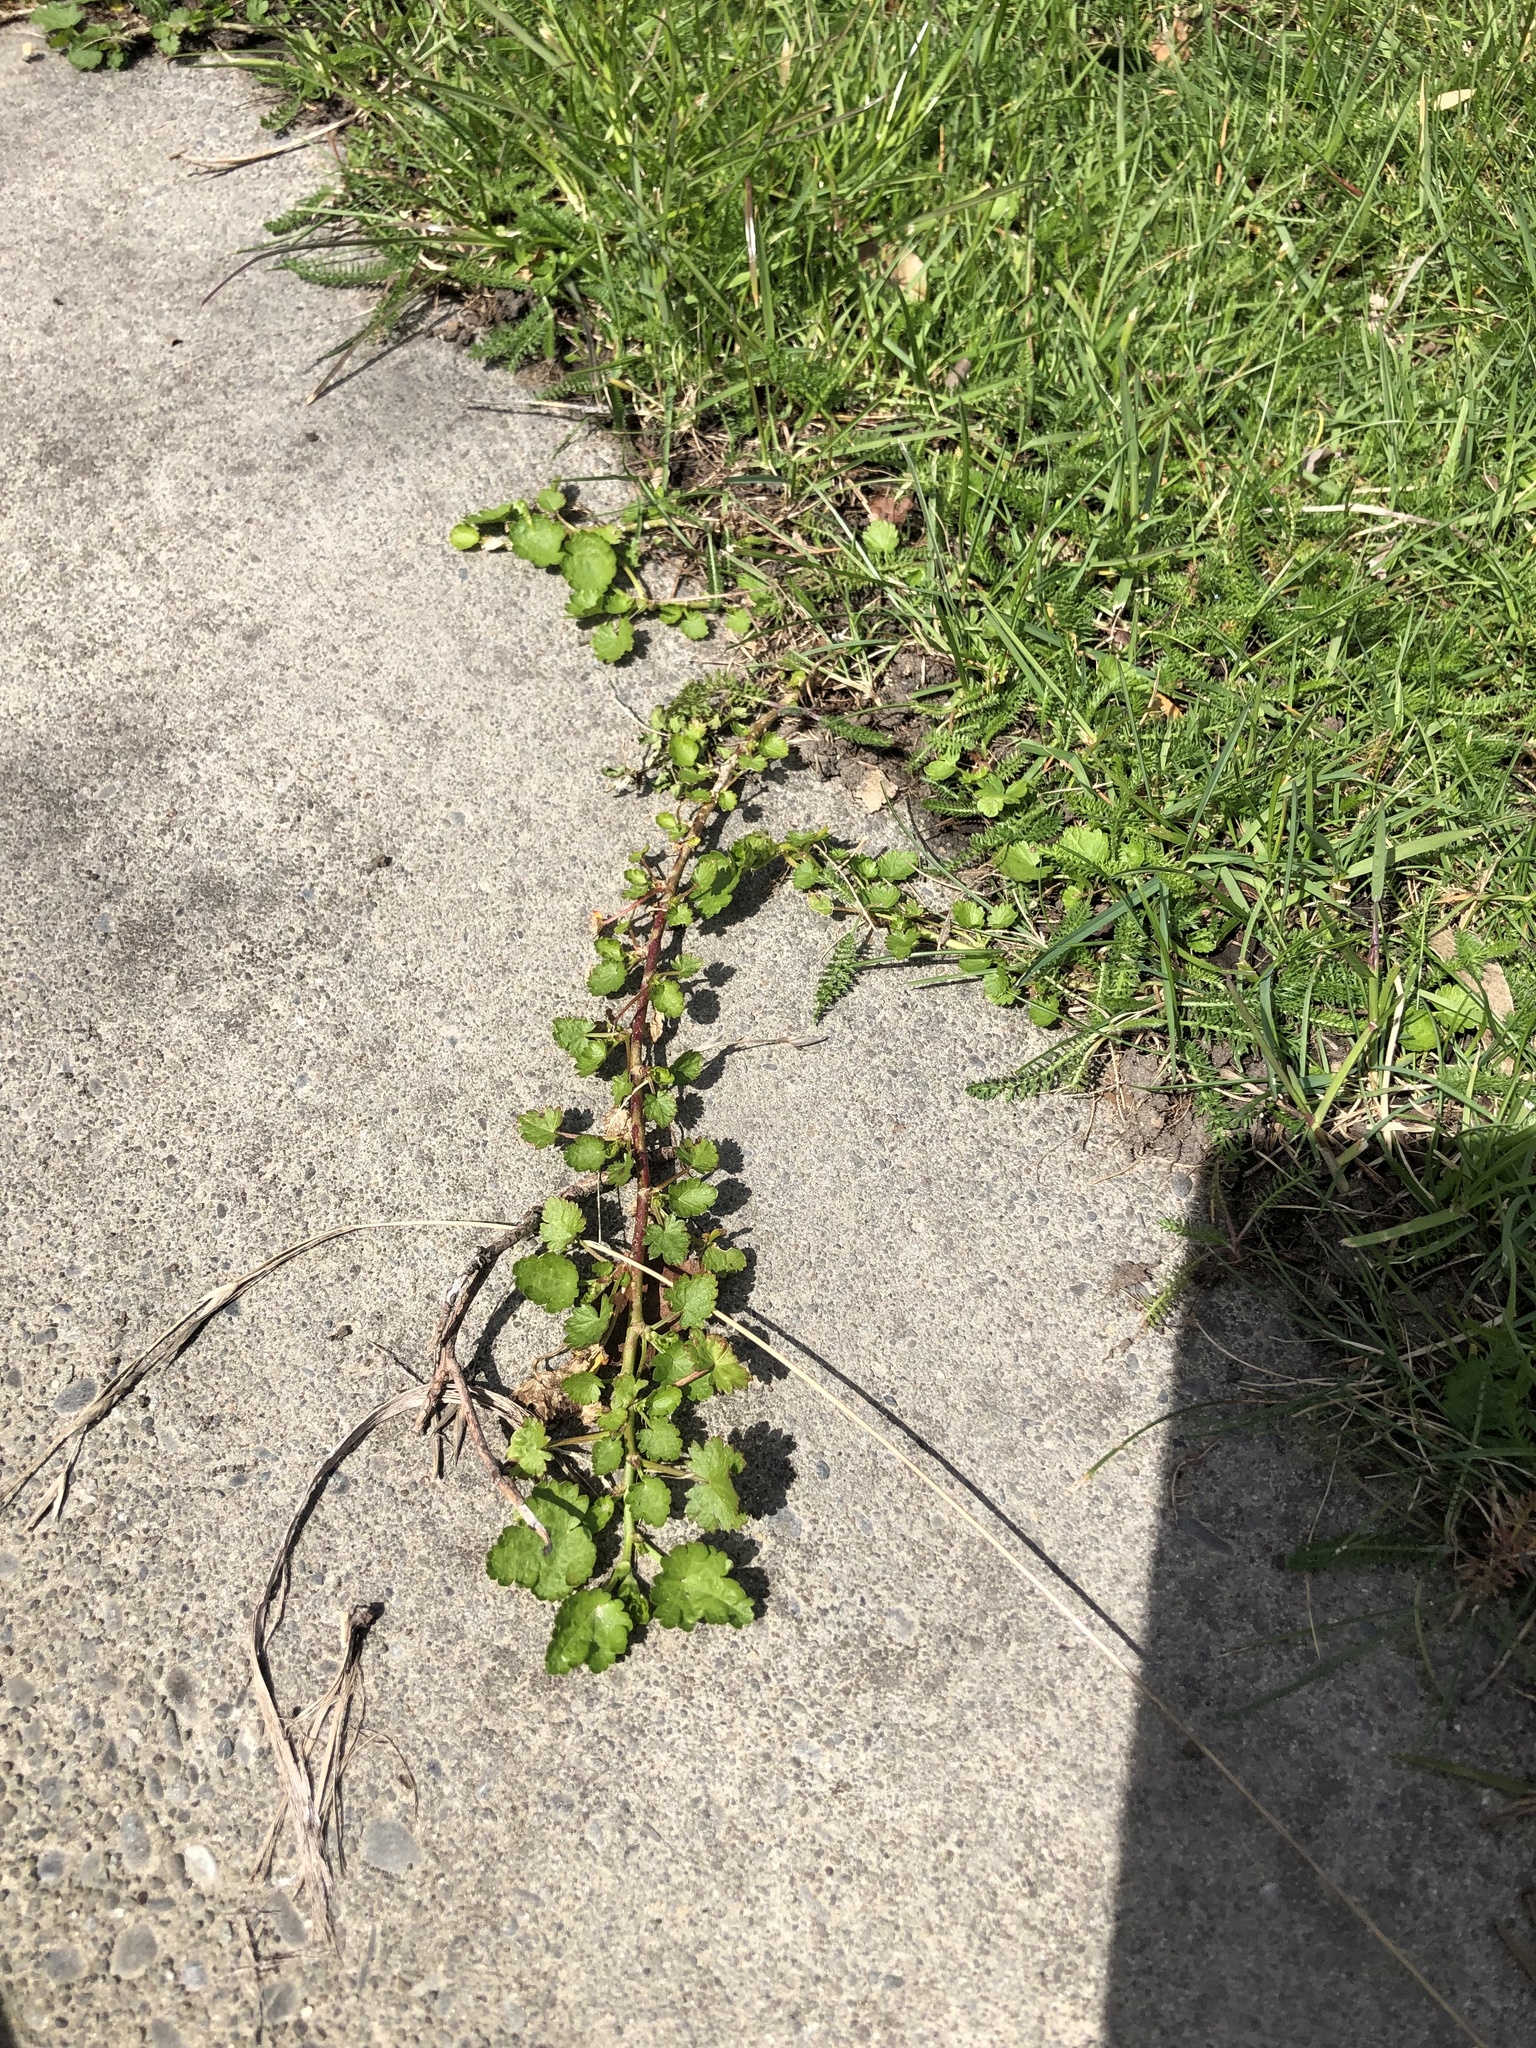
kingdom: Plantae
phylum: Tracheophyta
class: Magnoliopsida
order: Malvales
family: Malvaceae
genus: Modiola
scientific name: Modiola caroliniana
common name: Carolina bristlemallow
